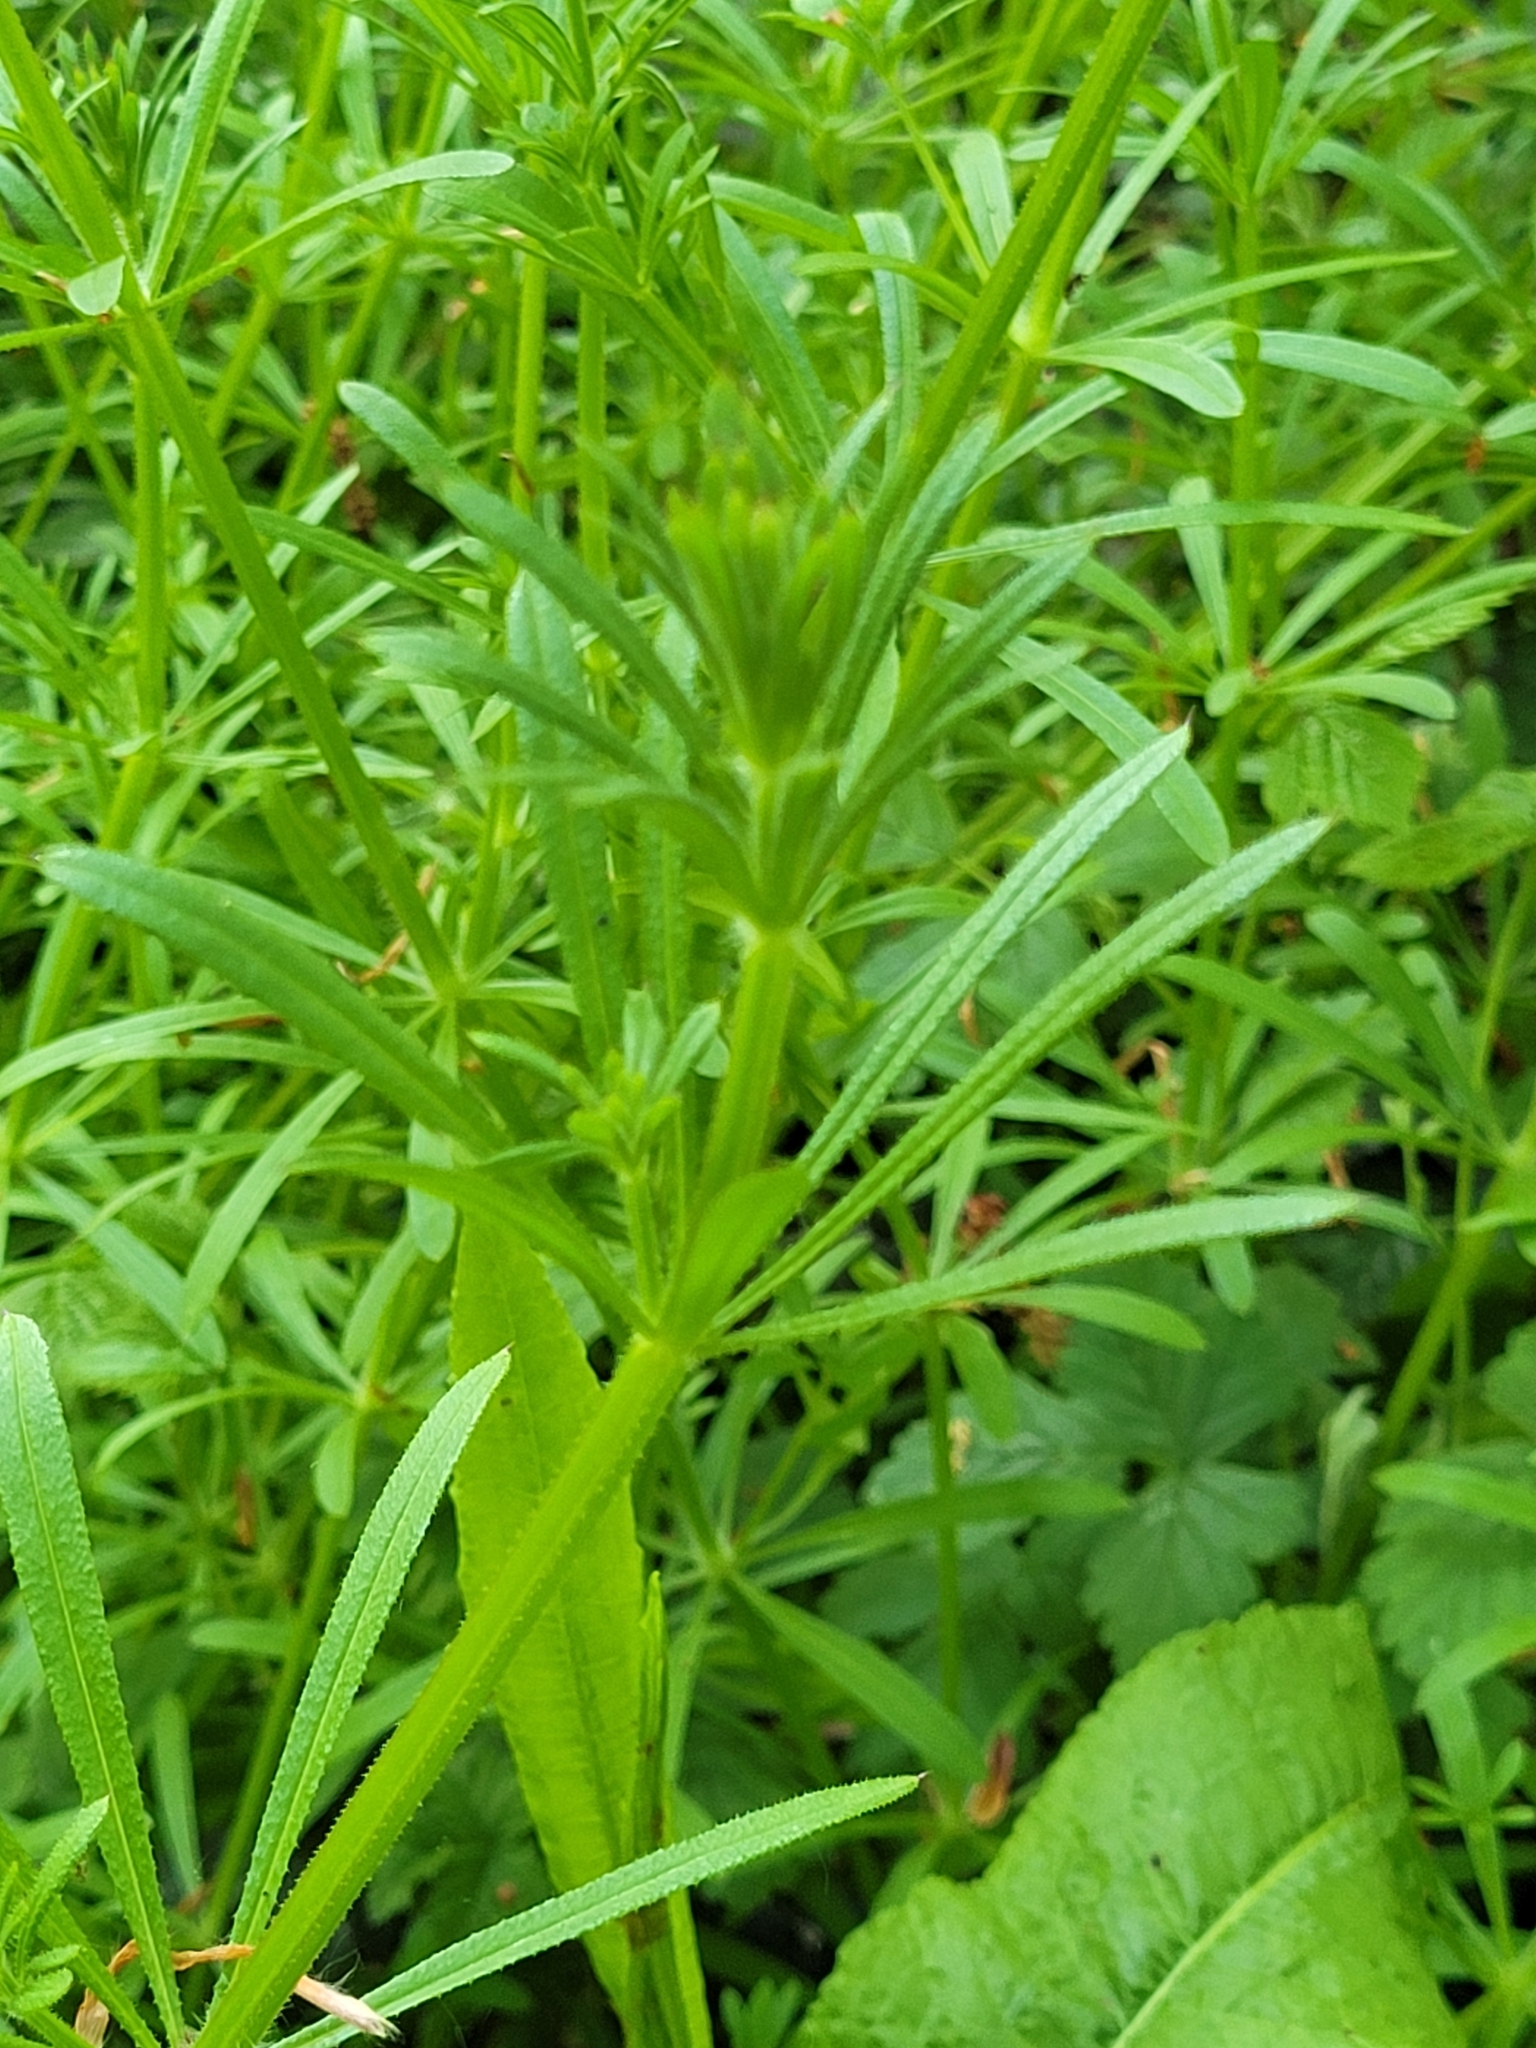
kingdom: Plantae
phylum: Tracheophyta
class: Magnoliopsida
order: Gentianales
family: Rubiaceae
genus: Galium
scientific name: Galium aparine
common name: Cleavers
